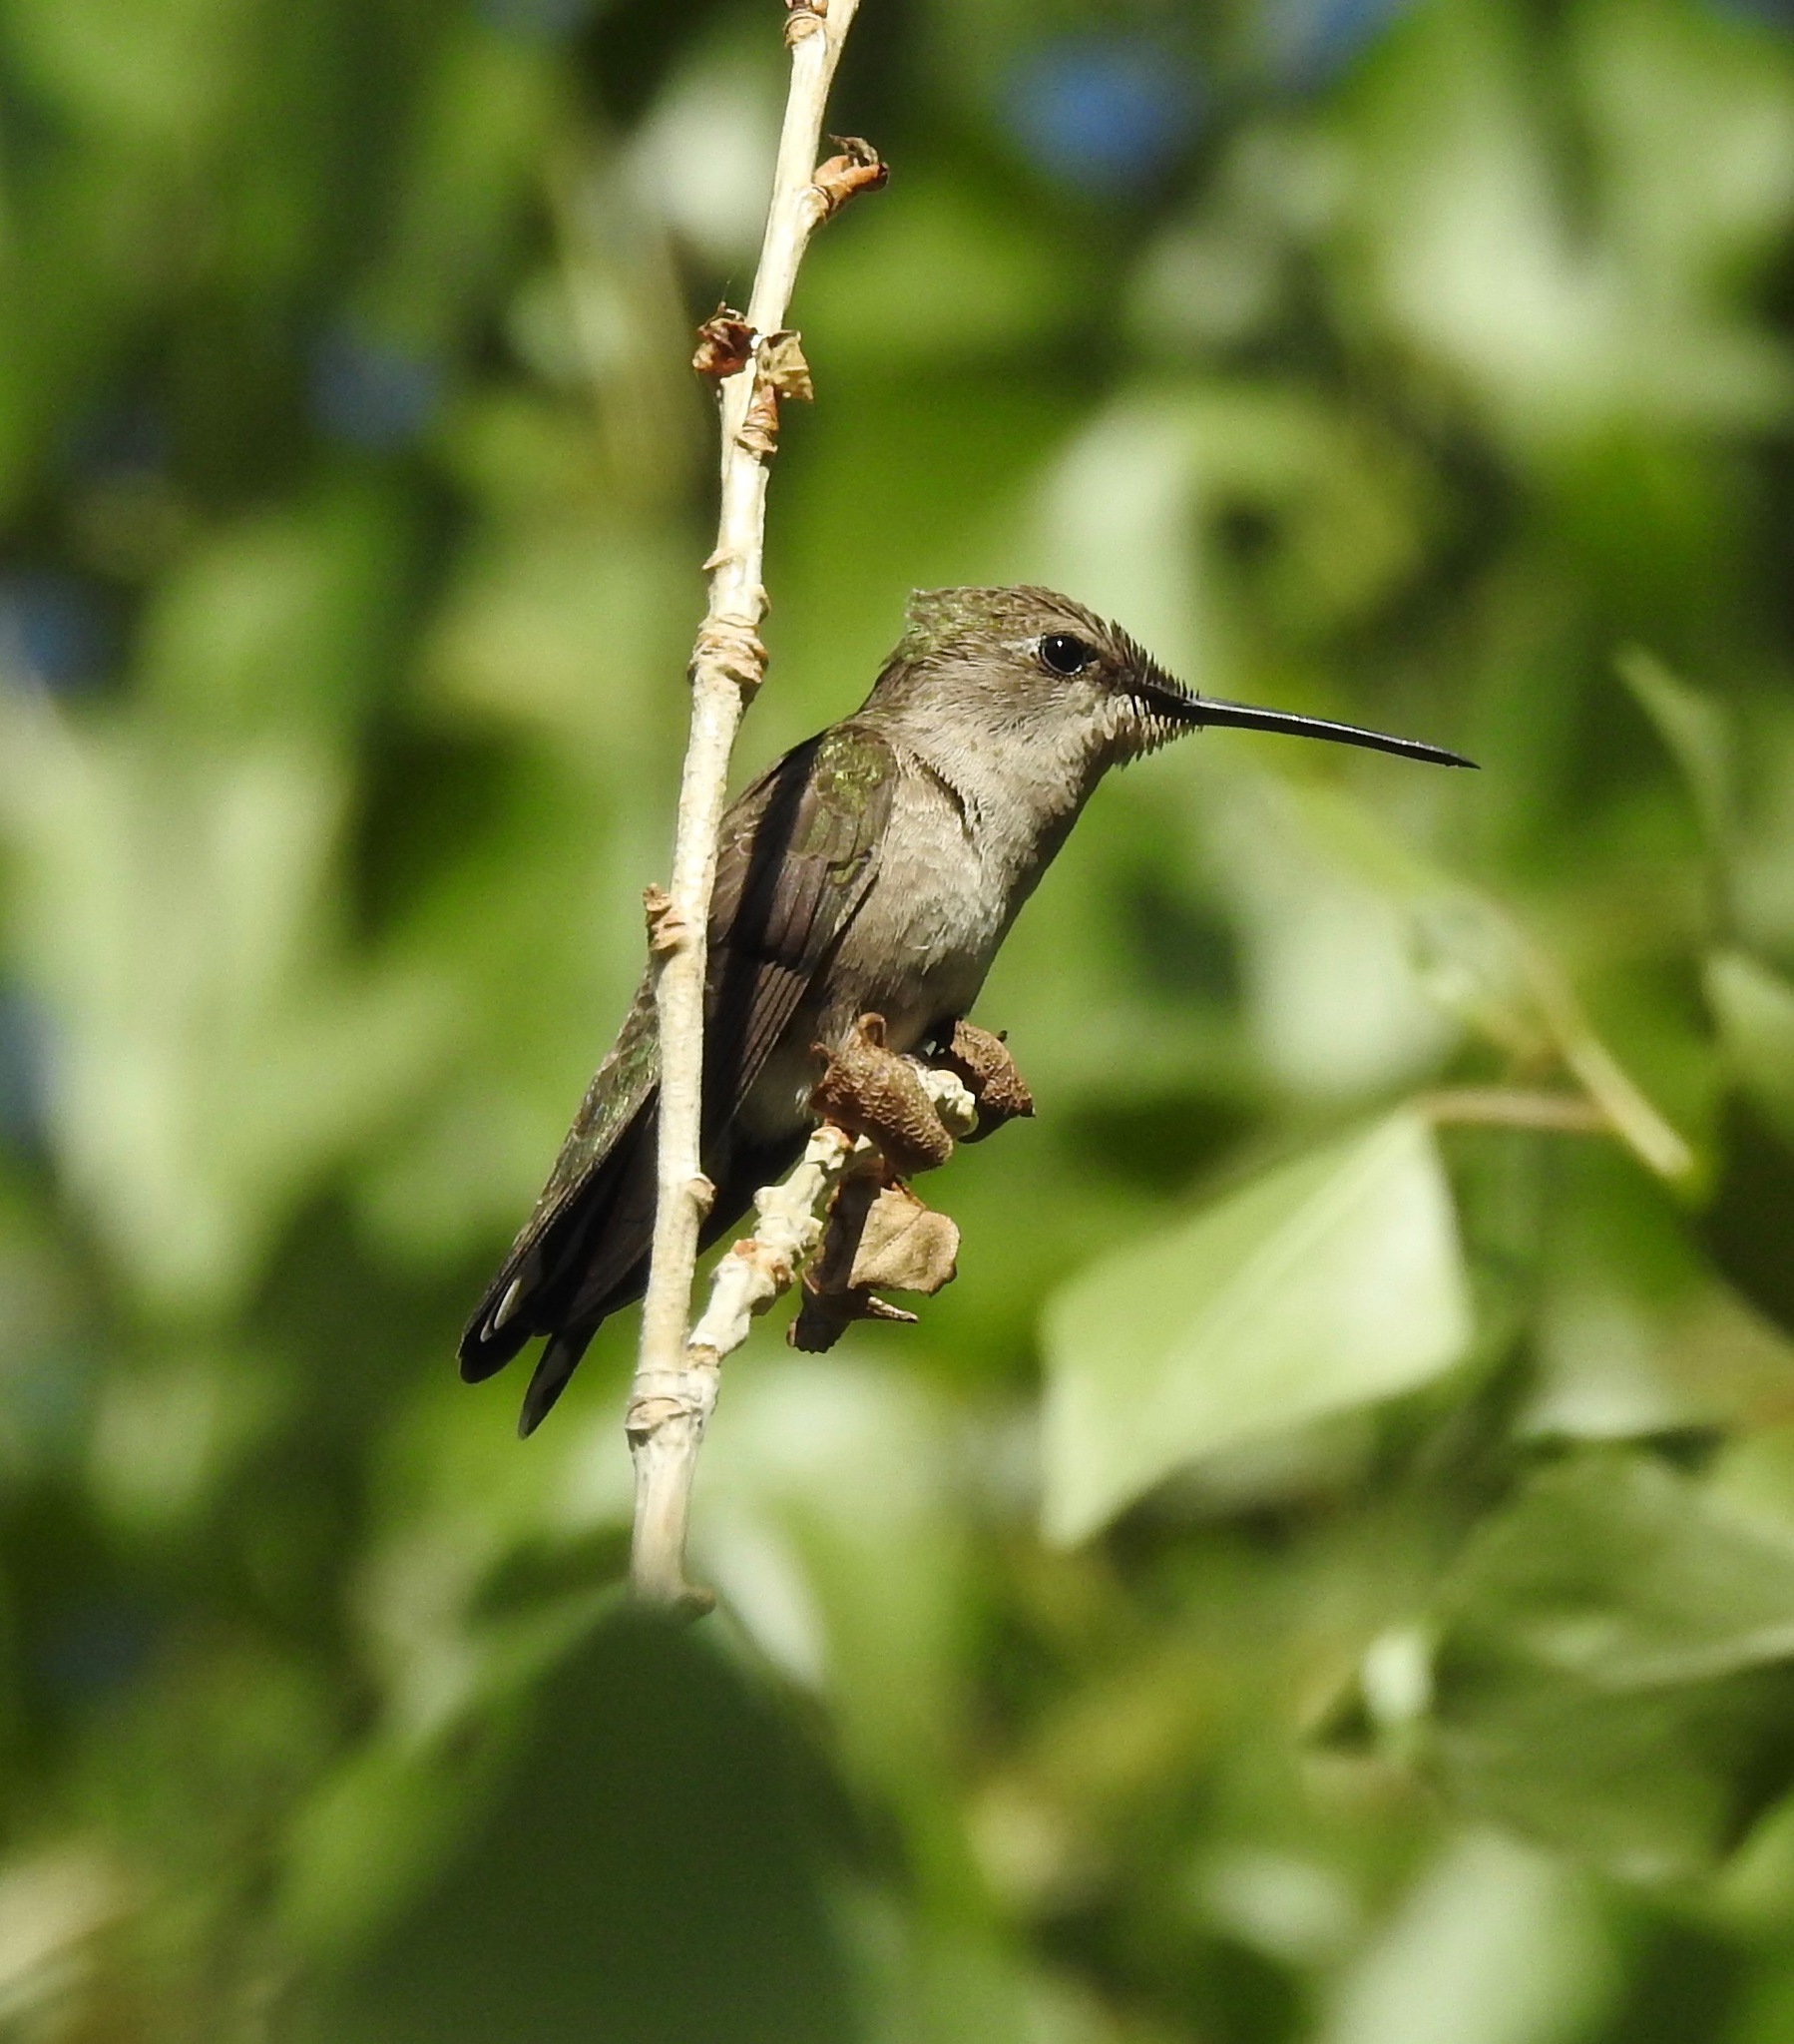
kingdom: Animalia
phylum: Chordata
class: Aves
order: Apodiformes
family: Trochilidae
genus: Archilochus
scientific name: Archilochus alexandri
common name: Black-chinned hummingbird
